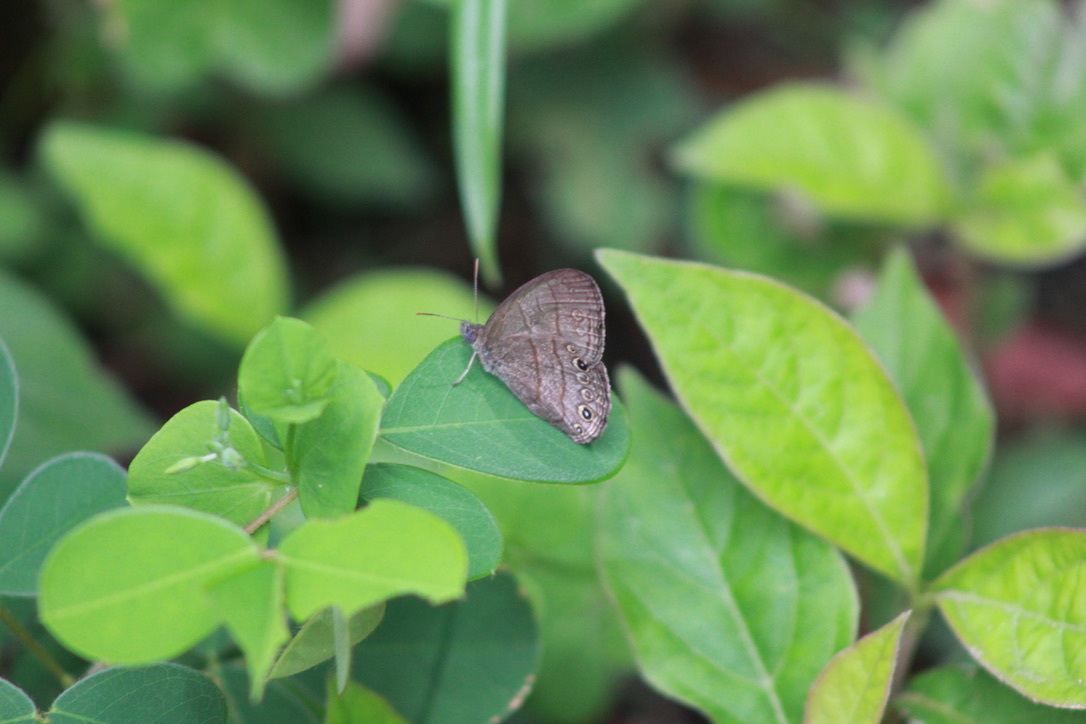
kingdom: Animalia
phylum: Arthropoda
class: Insecta
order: Lepidoptera
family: Nymphalidae
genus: Hermeuptychia
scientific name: Hermeuptychia canthe
